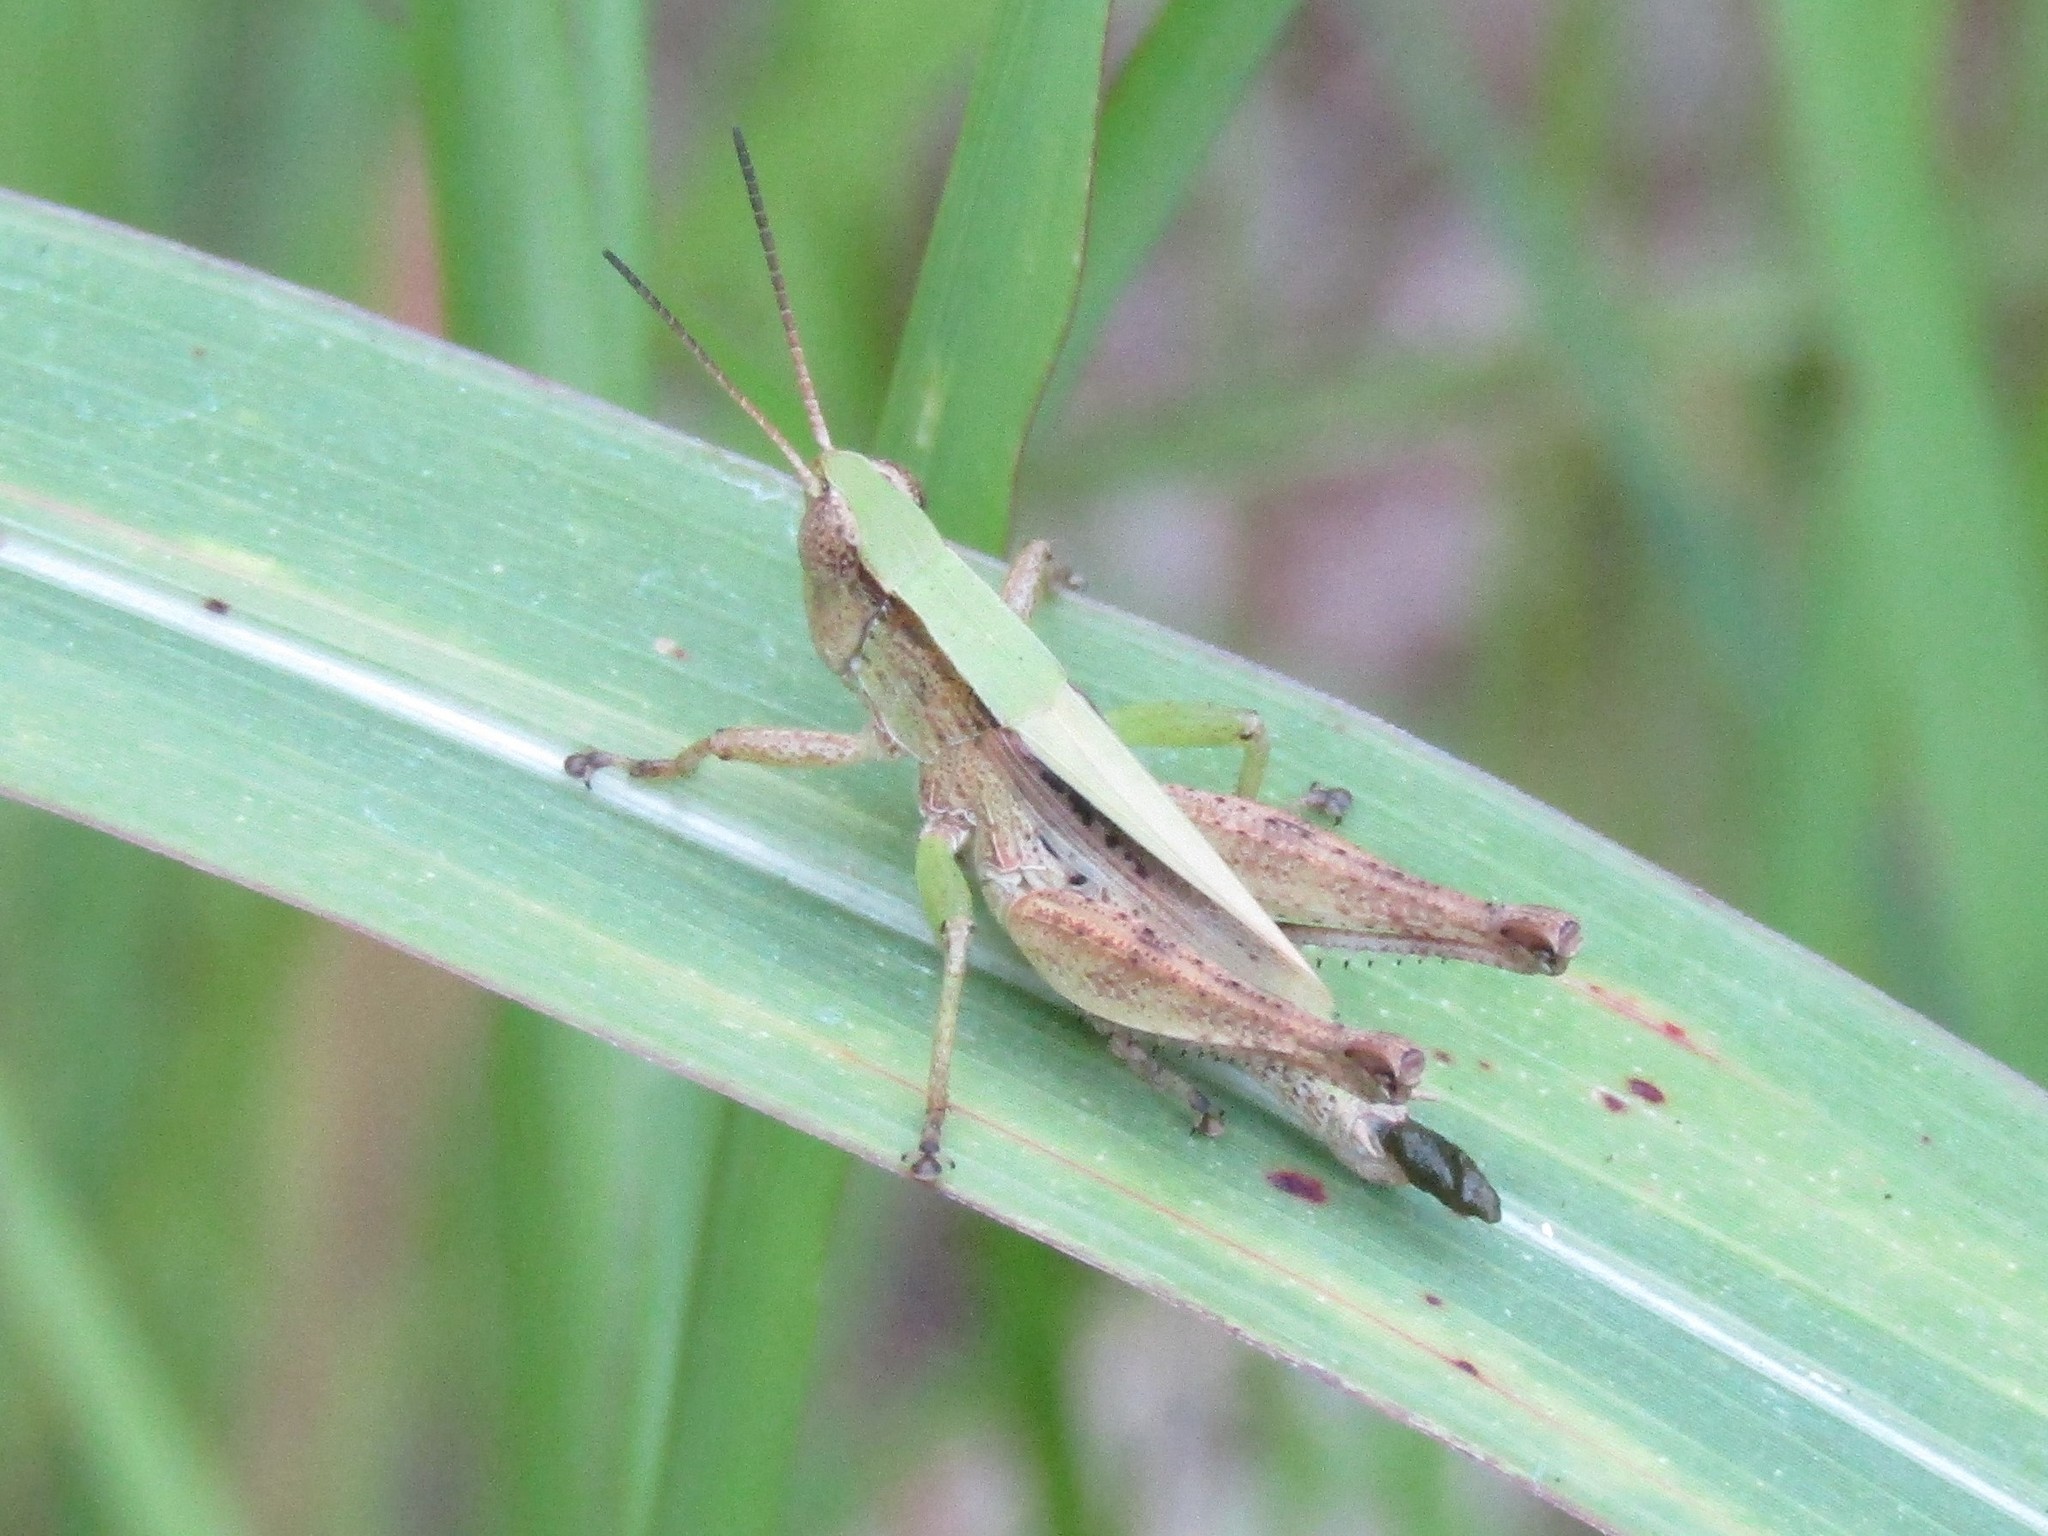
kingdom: Animalia
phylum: Arthropoda
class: Insecta
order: Orthoptera
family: Acrididae
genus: Dichromorpha
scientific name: Dichromorpha viridis
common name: Short-winged green grasshopper
